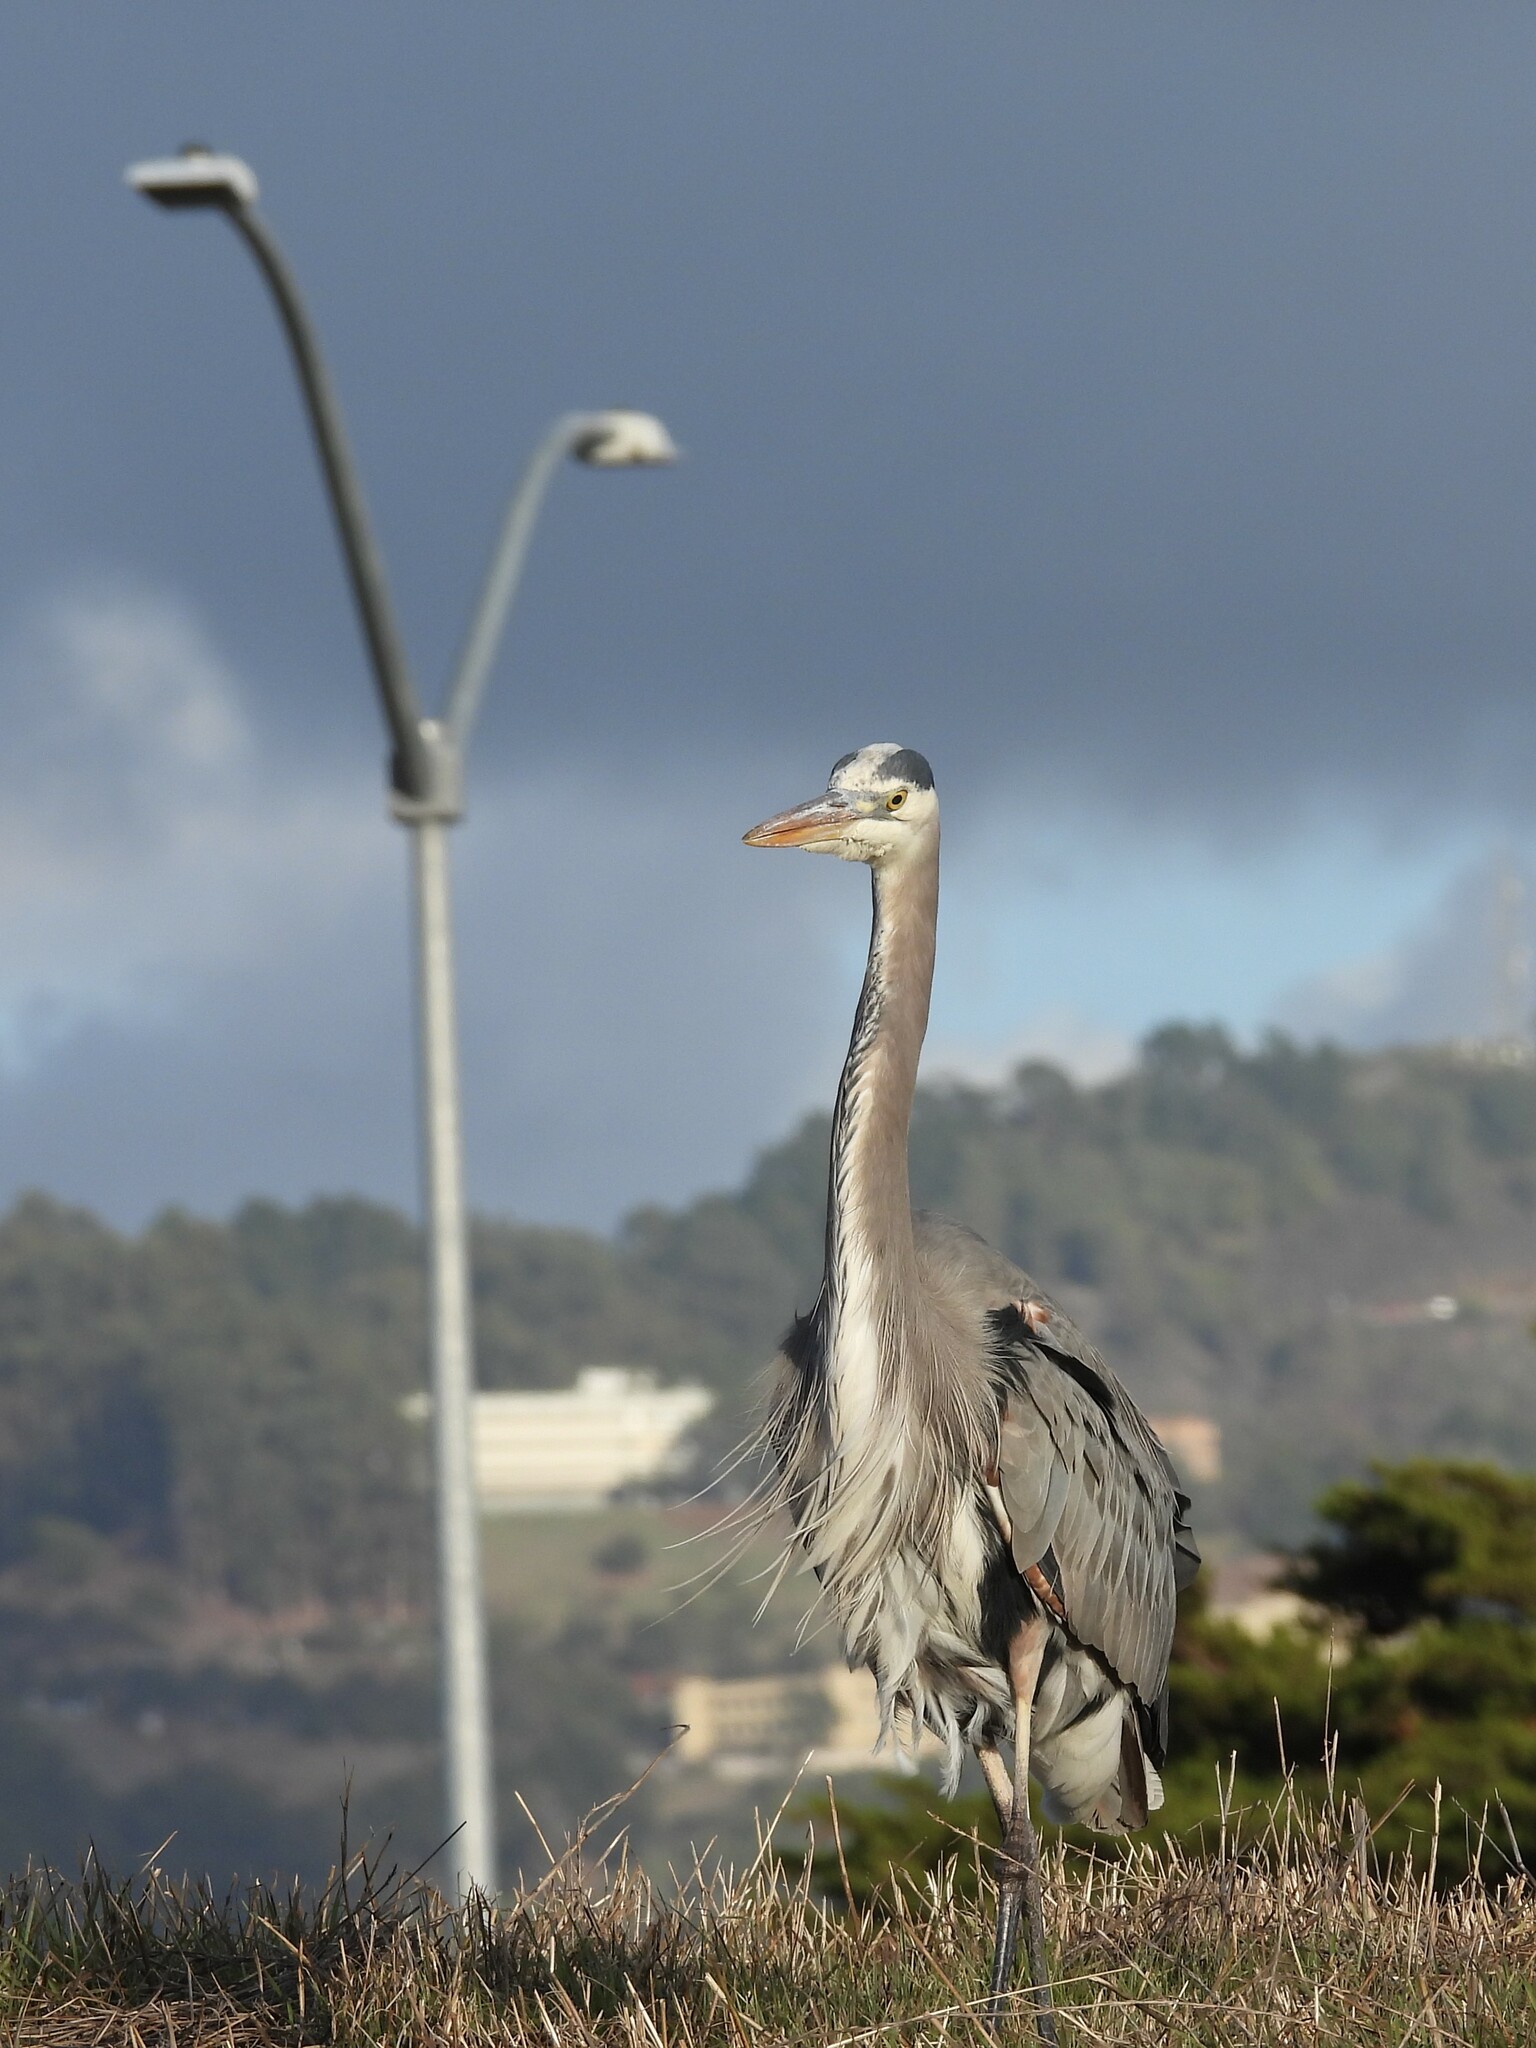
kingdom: Animalia
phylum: Chordata
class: Aves
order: Pelecaniformes
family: Ardeidae
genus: Ardea
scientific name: Ardea herodias
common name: Great blue heron
